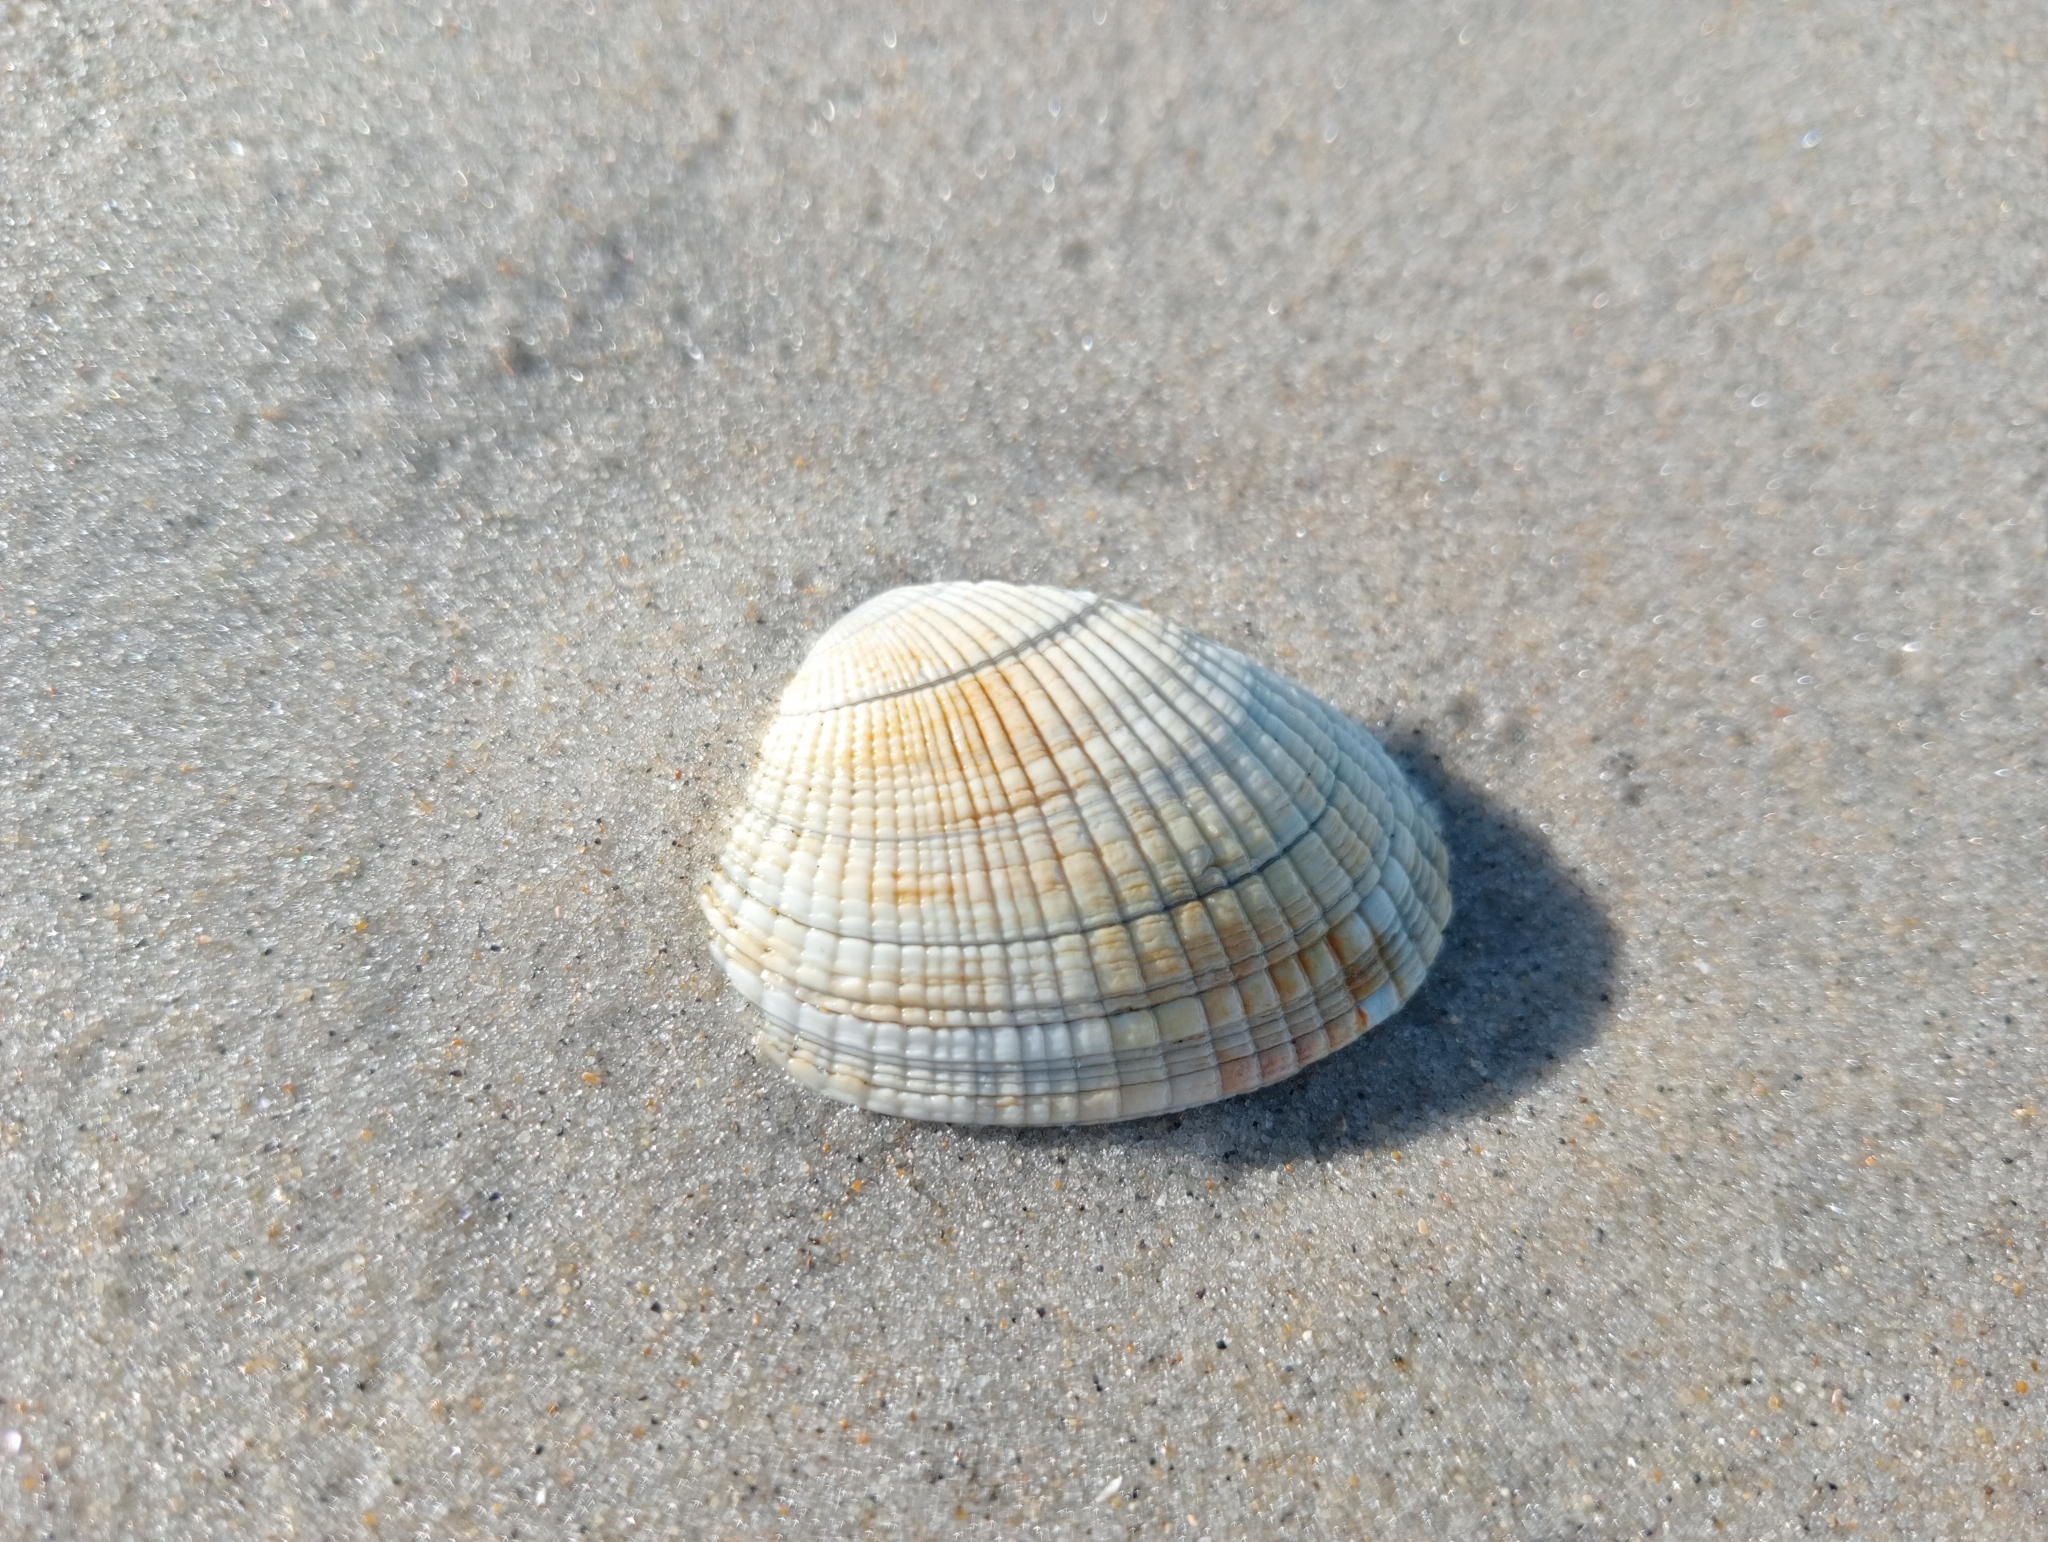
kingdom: Animalia
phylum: Mollusca
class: Bivalvia
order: Venerida
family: Veneridae
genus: Leukoma
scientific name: Leukoma crassicosta
